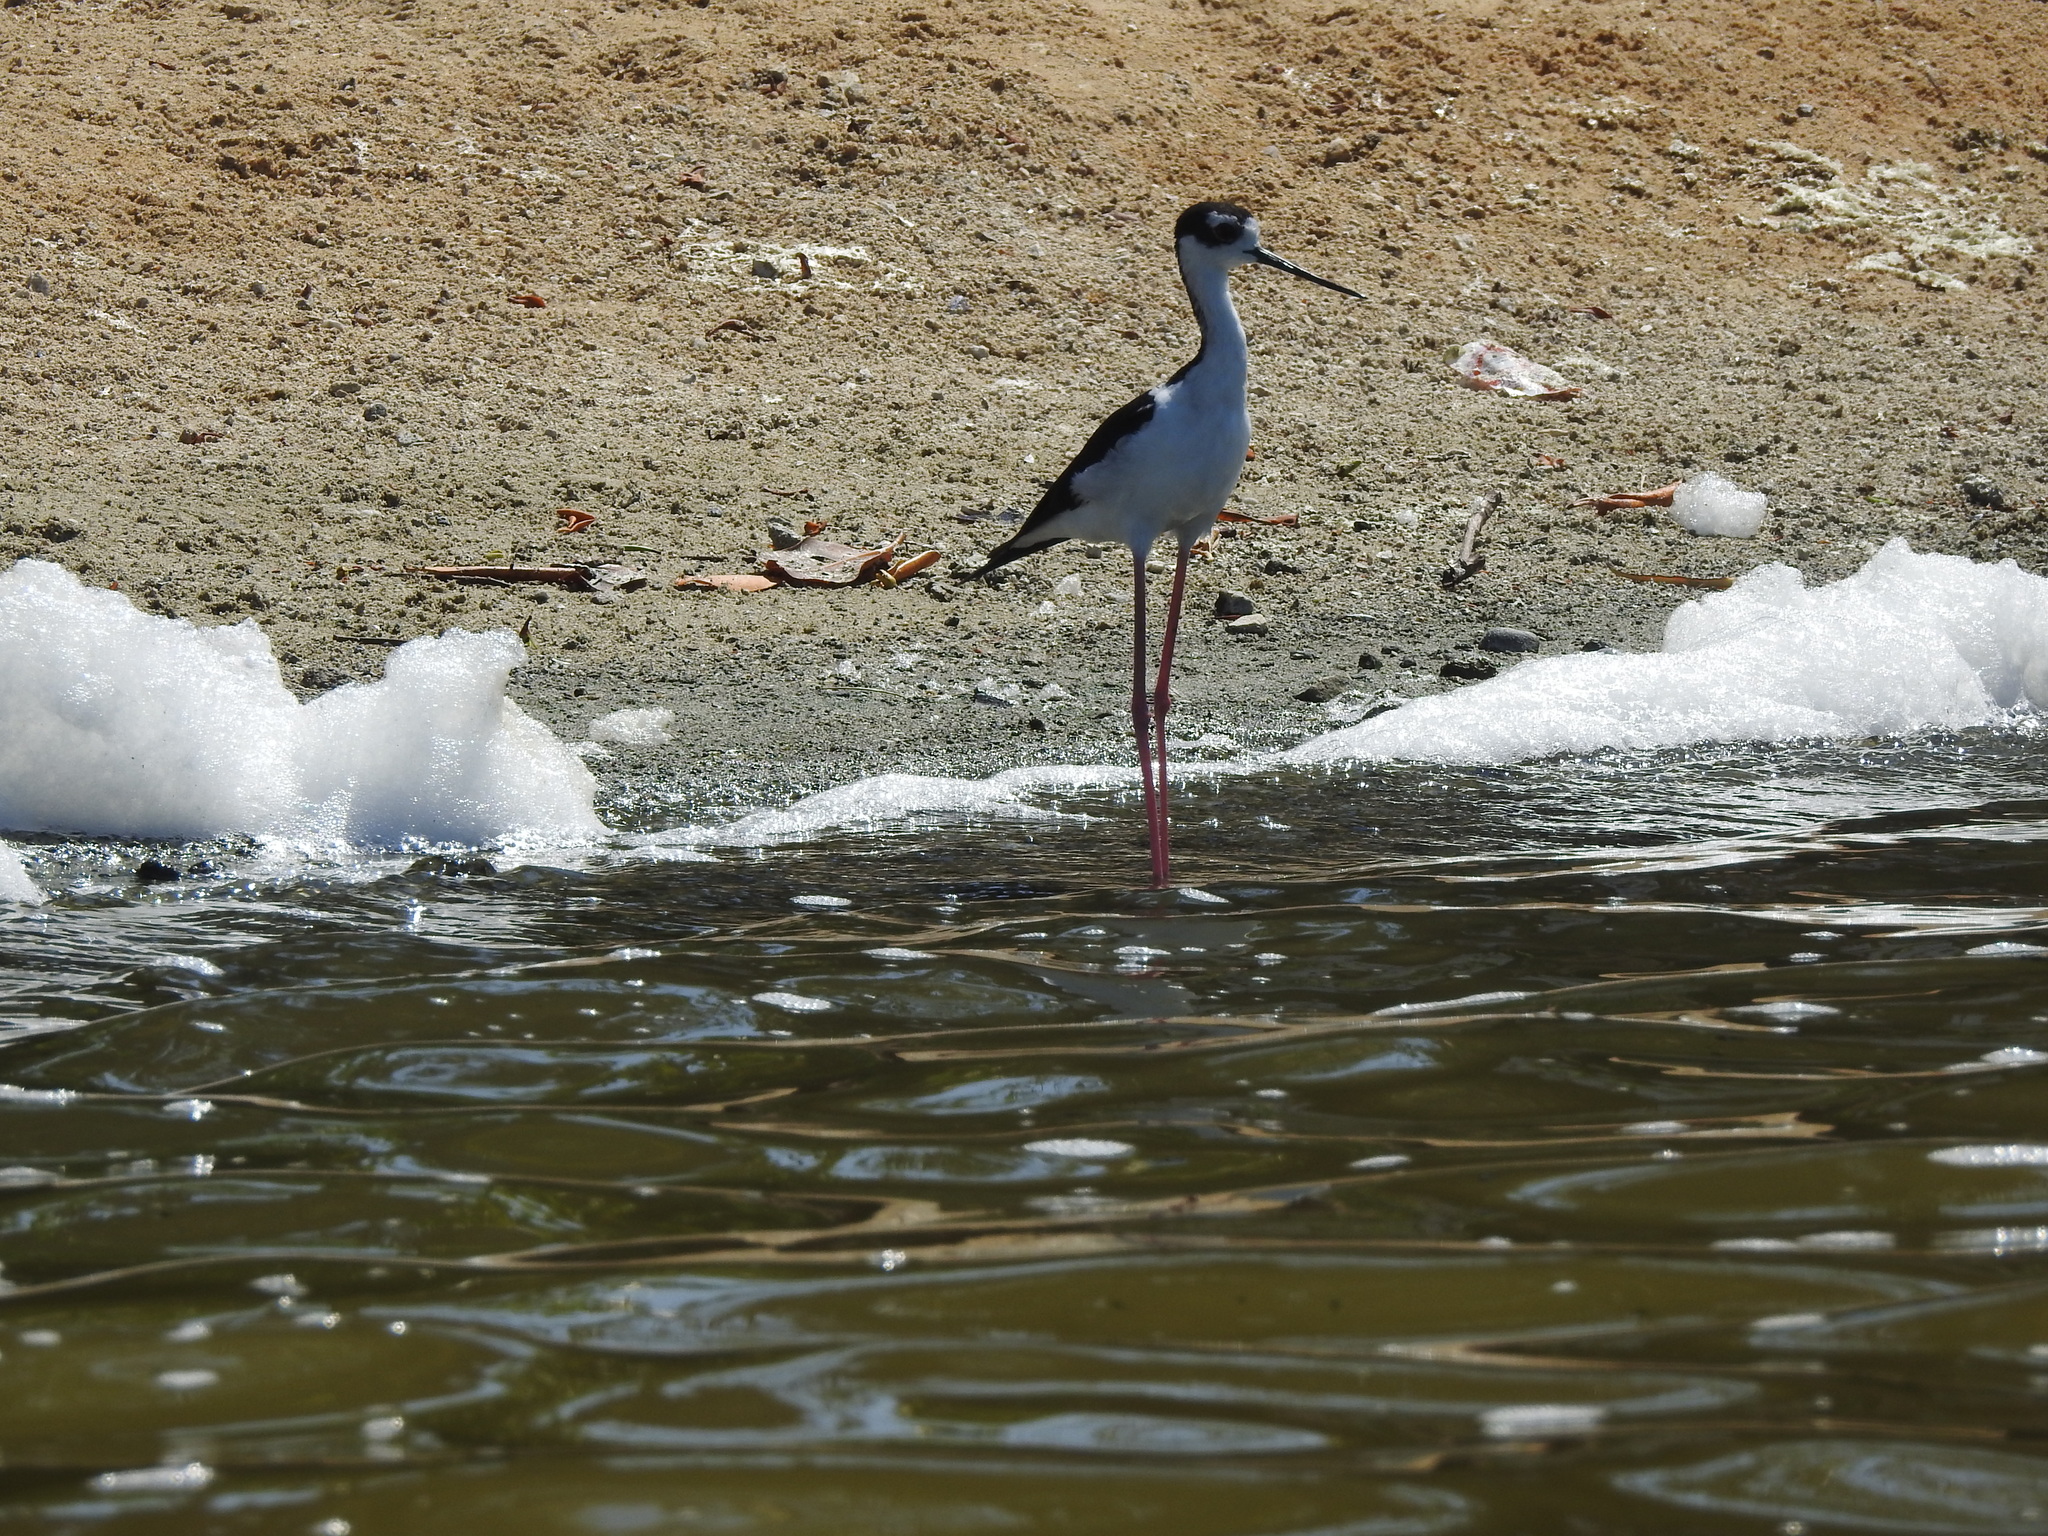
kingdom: Animalia
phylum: Chordata
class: Aves
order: Charadriiformes
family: Recurvirostridae
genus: Himantopus
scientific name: Himantopus mexicanus
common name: Black-necked stilt
